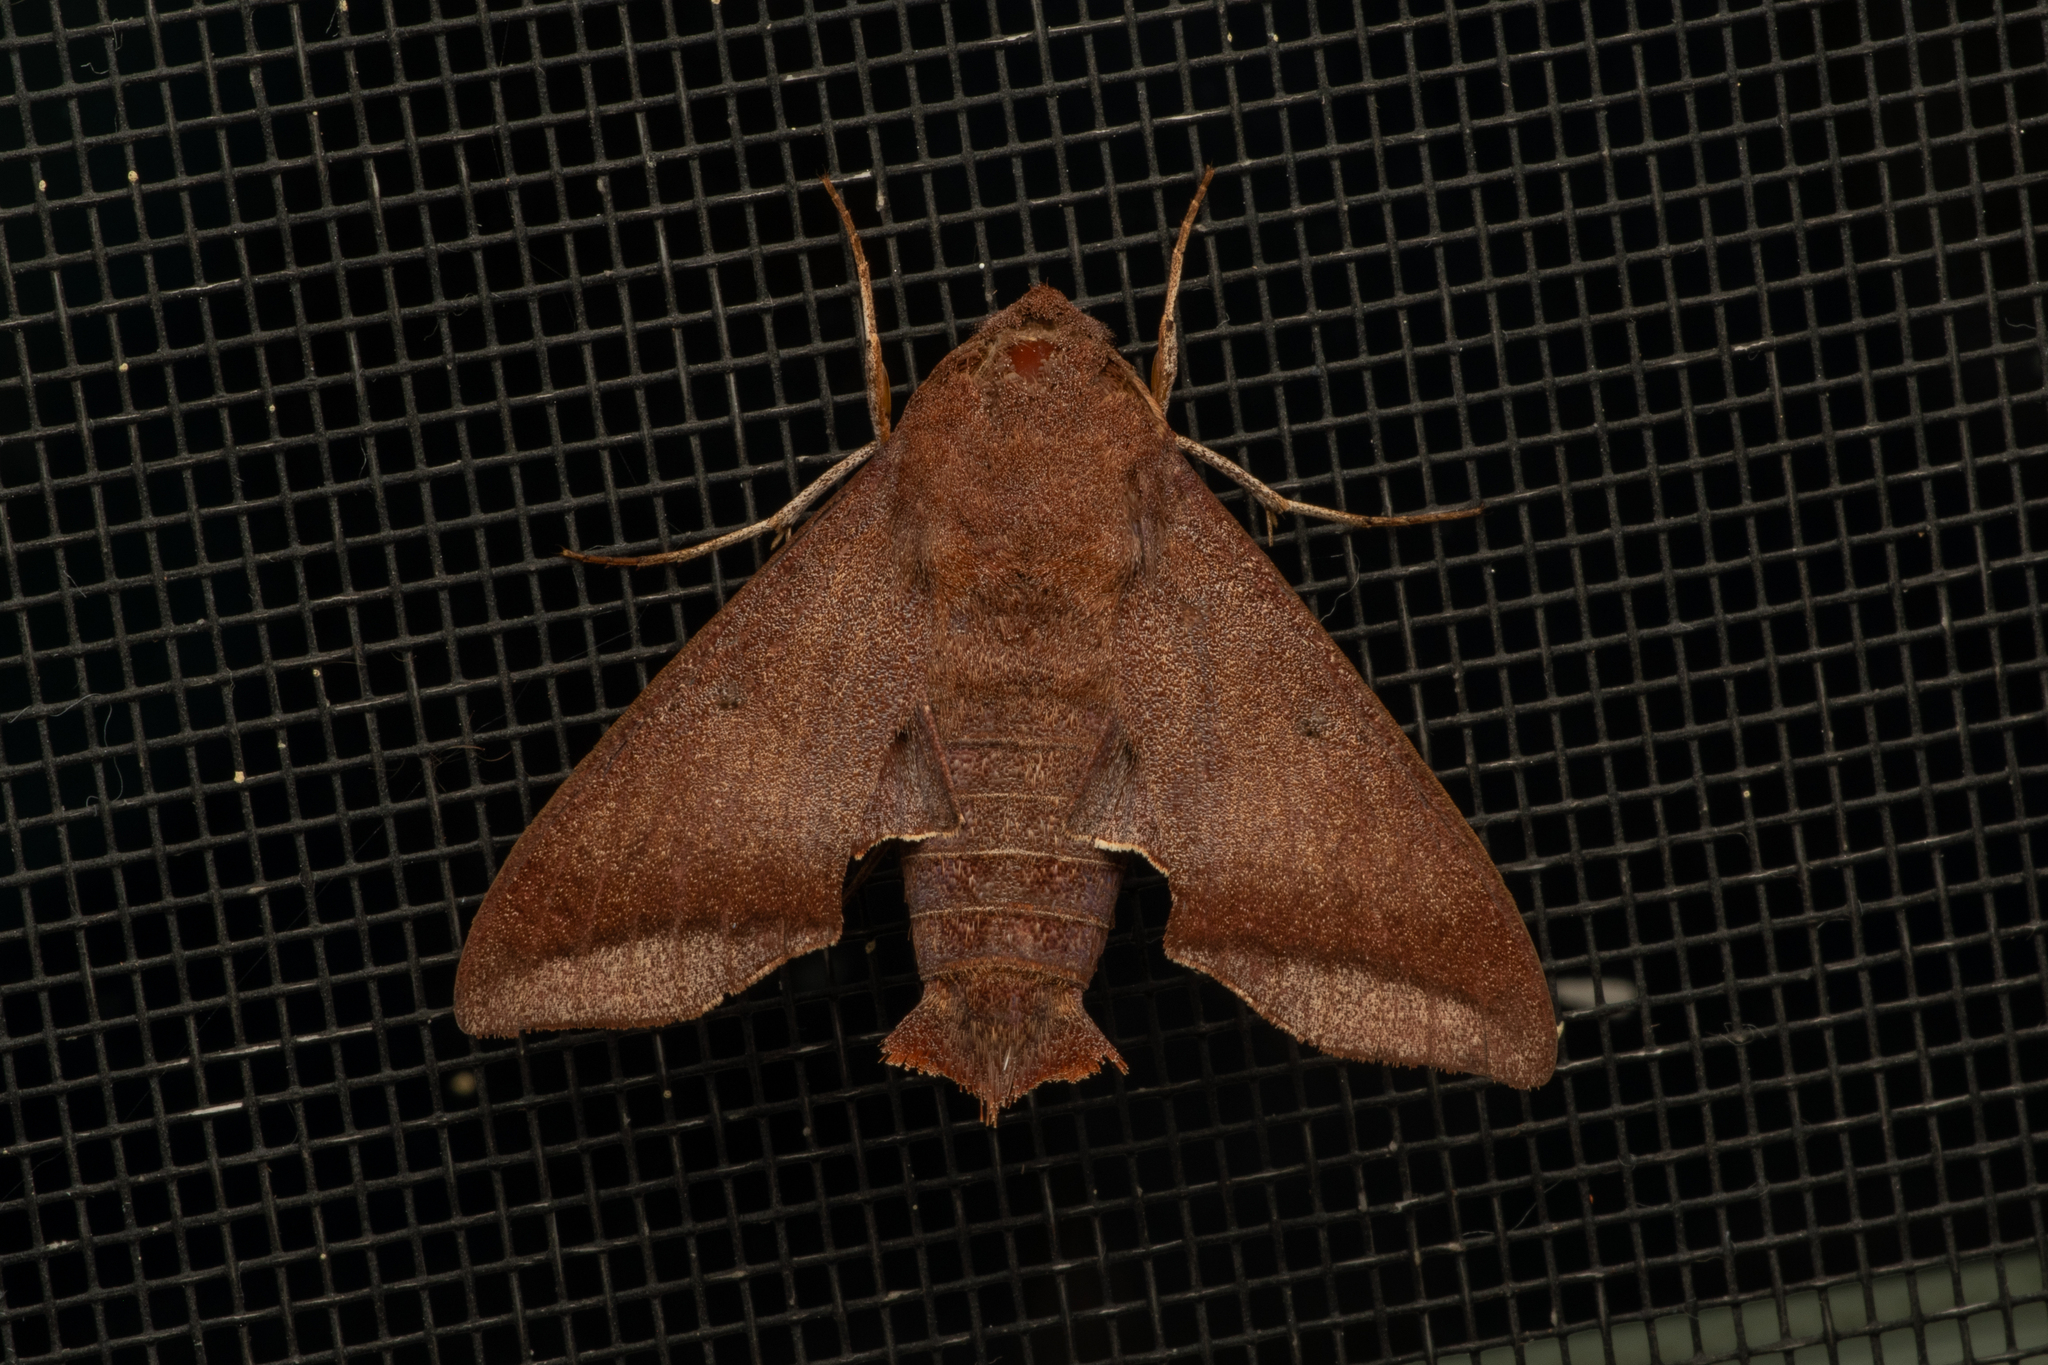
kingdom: Animalia
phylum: Arthropoda
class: Insecta
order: Lepidoptera
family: Sphingidae
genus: Perigonia
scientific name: Perigonia manni
